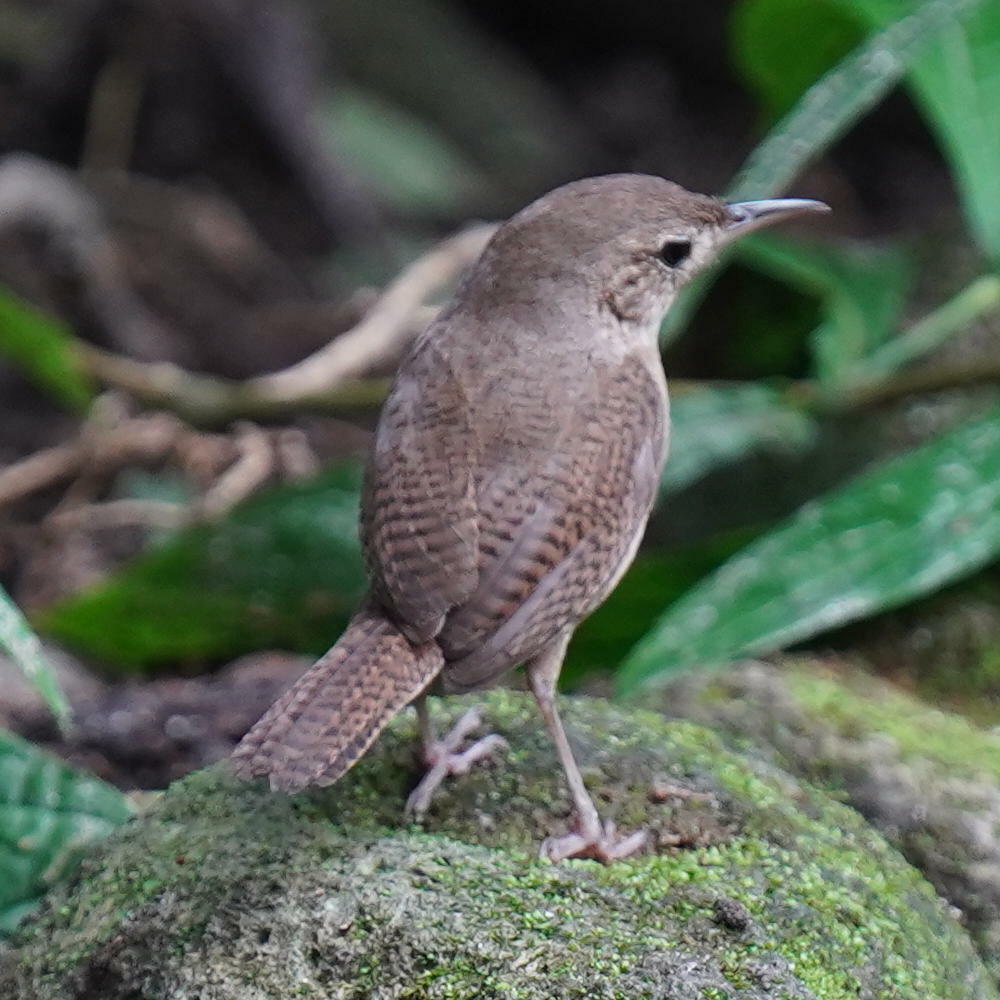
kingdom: Animalia
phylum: Chordata
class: Aves
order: Passeriformes
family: Troglodytidae
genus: Troglodytes
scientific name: Troglodytes aedon
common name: House wren
